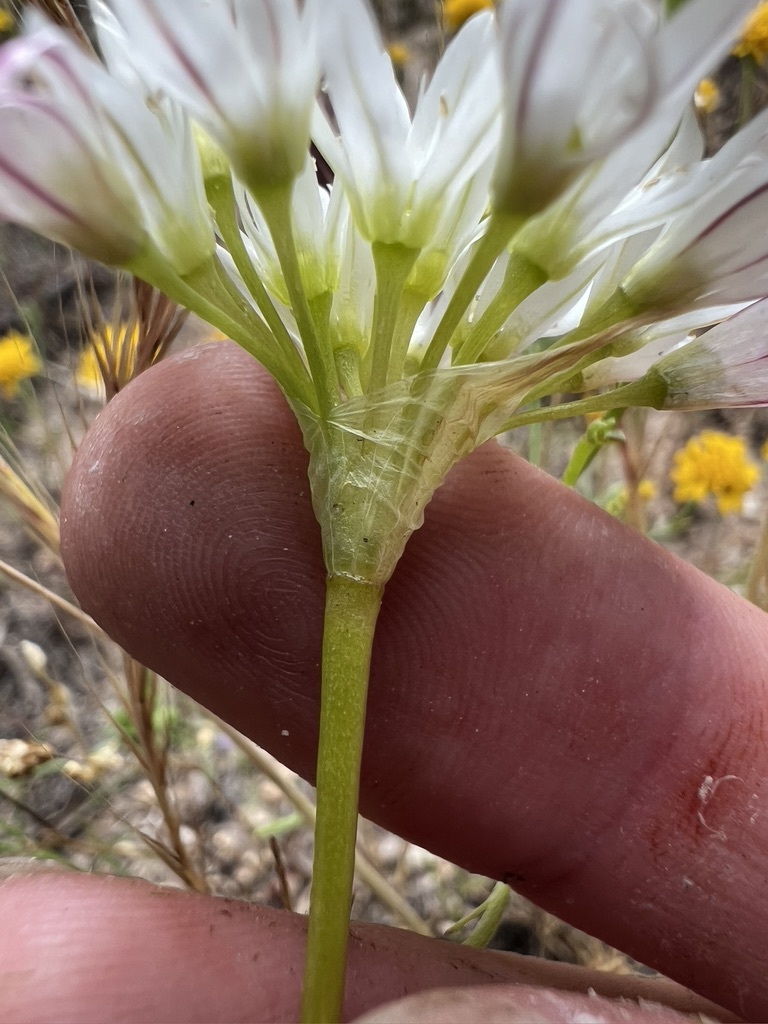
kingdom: Plantae
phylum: Tracheophyta
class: Liliopsida
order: Asparagales
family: Amaryllidaceae
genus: Allium
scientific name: Allium lacunosum
